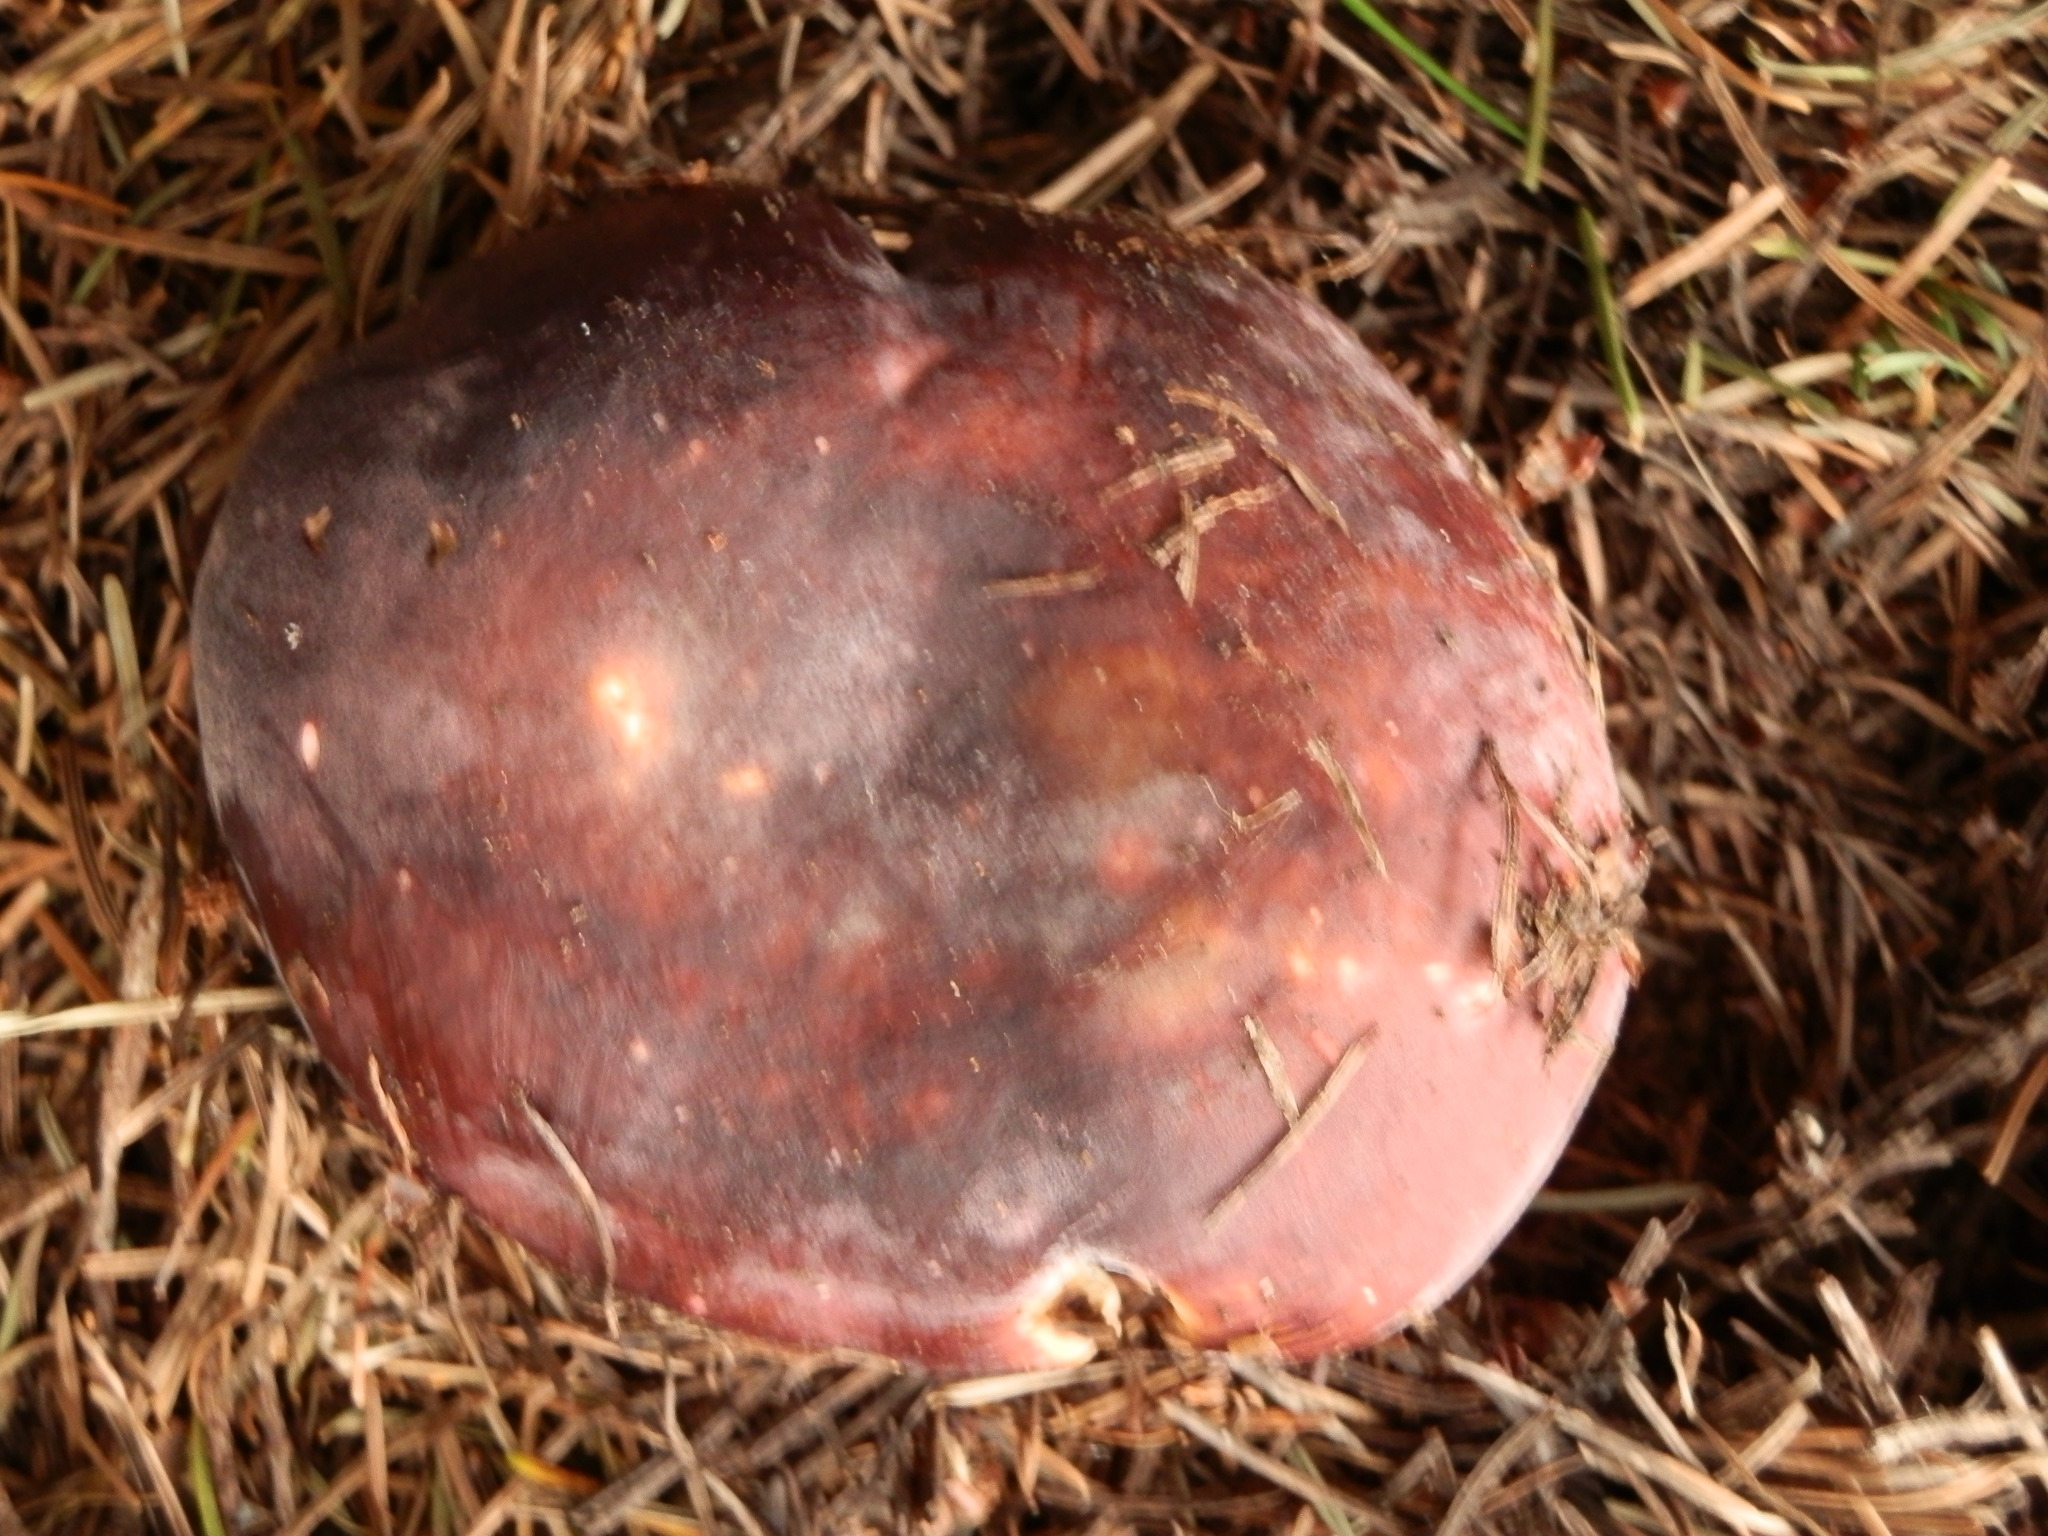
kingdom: Fungi
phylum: Basidiomycota
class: Agaricomycetes
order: Russulales
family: Russulaceae
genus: Russula
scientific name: Russula xerampelina
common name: Crab brittlegill
